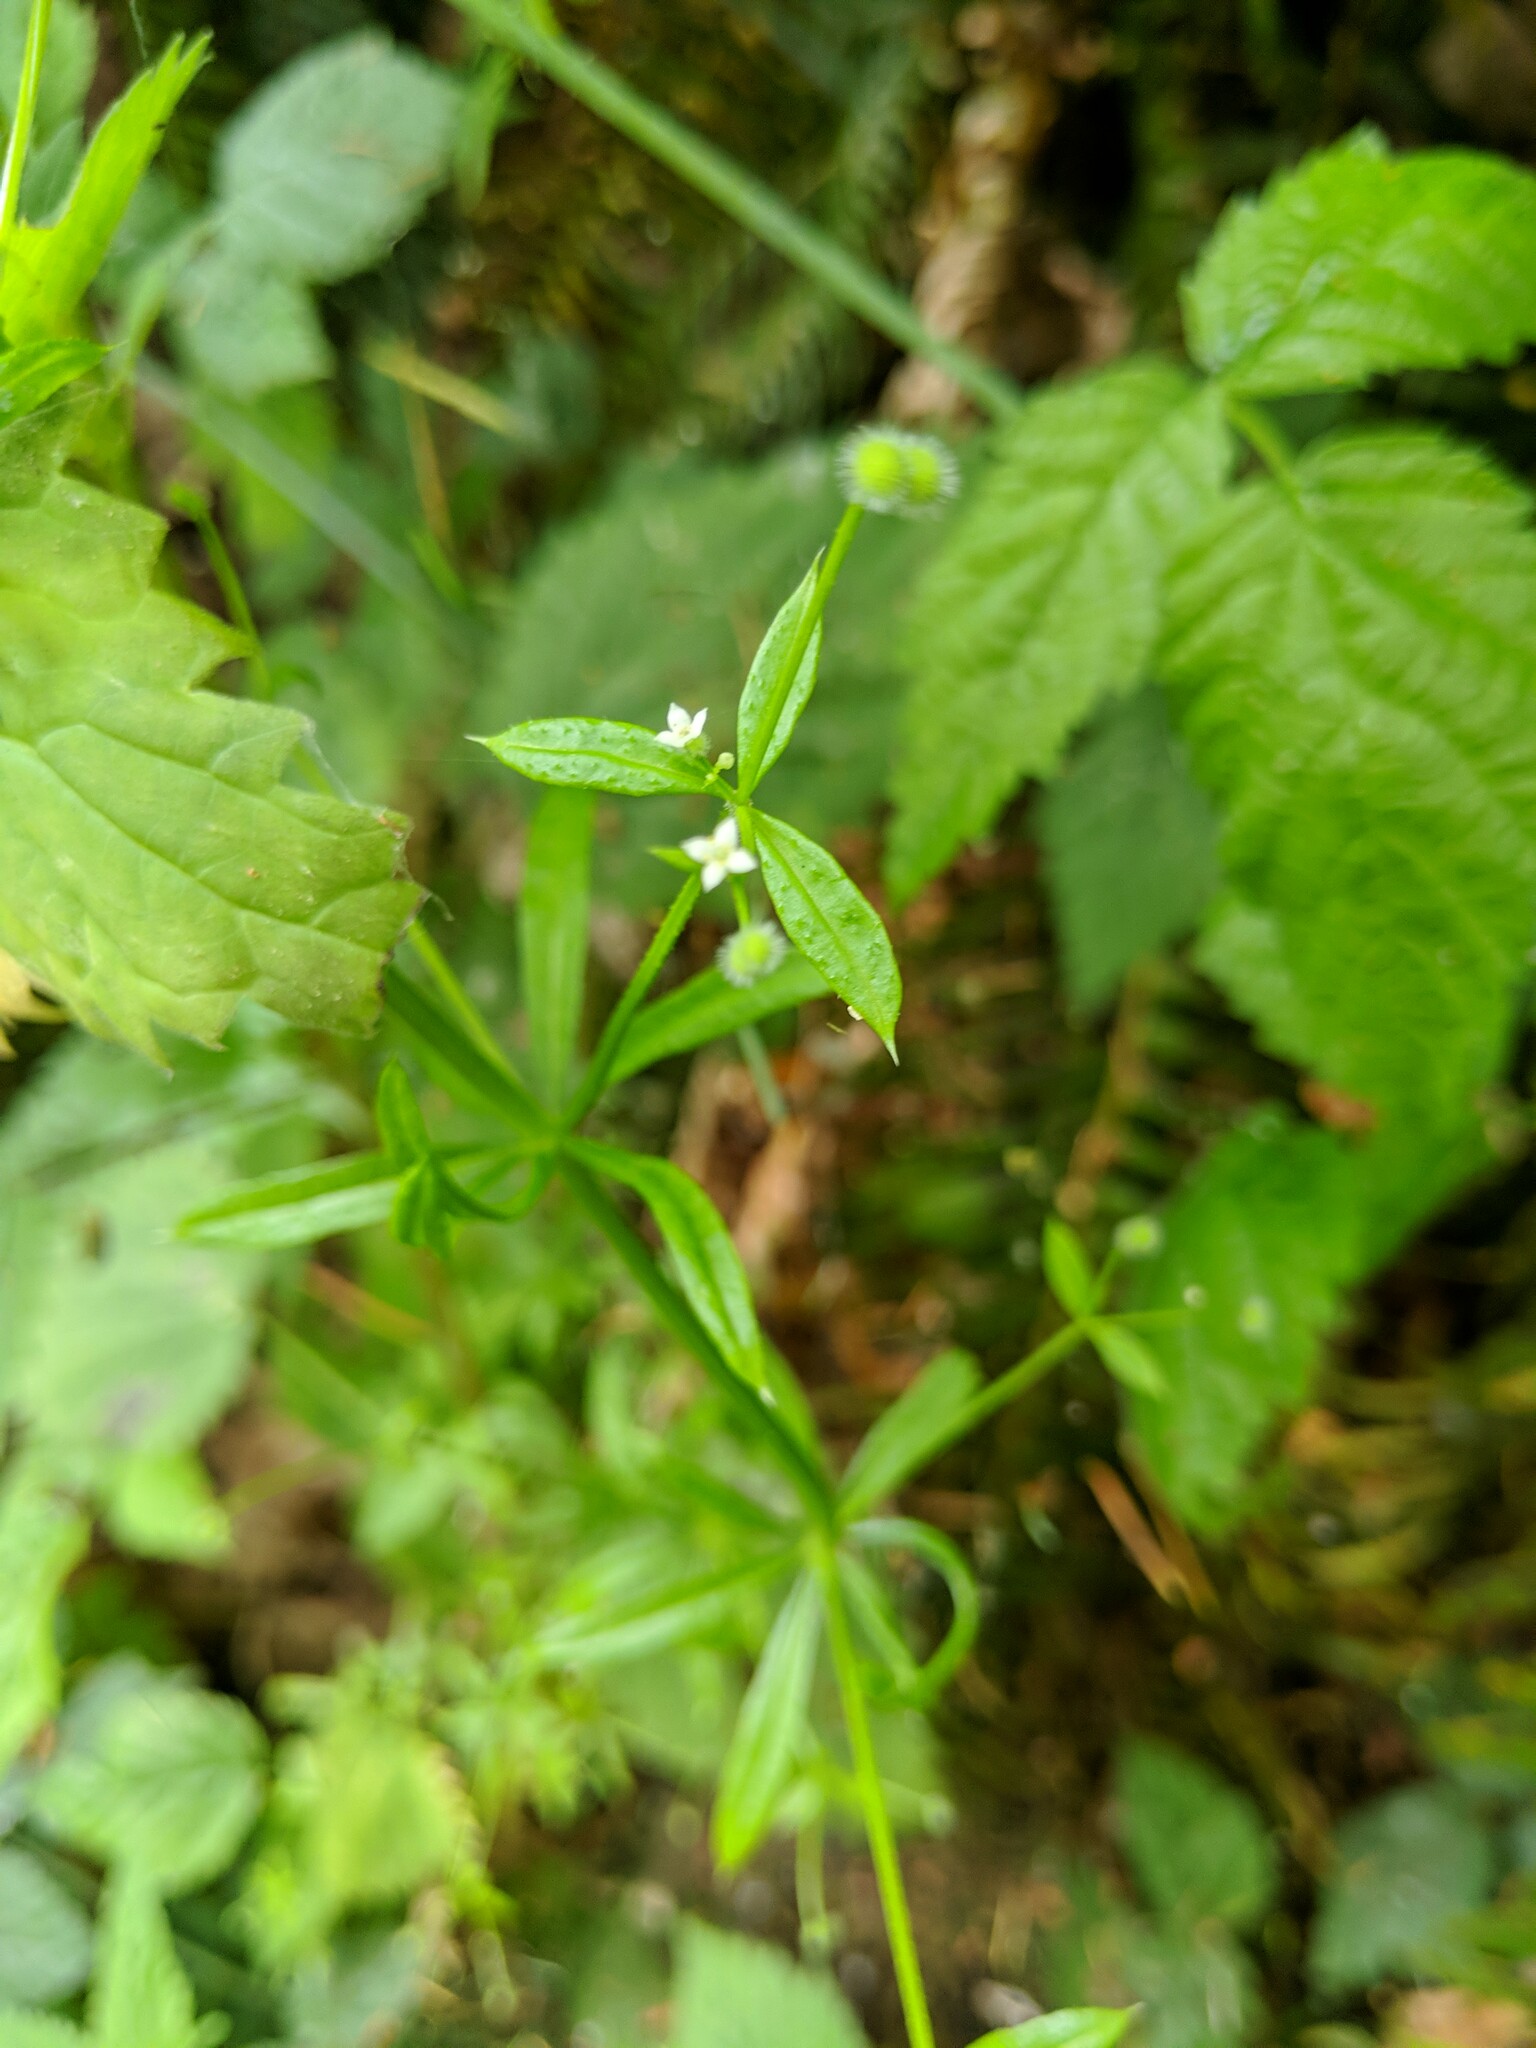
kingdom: Plantae
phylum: Tracheophyta
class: Magnoliopsida
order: Gentianales
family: Rubiaceae
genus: Galium
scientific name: Galium aparine
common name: Cleavers
